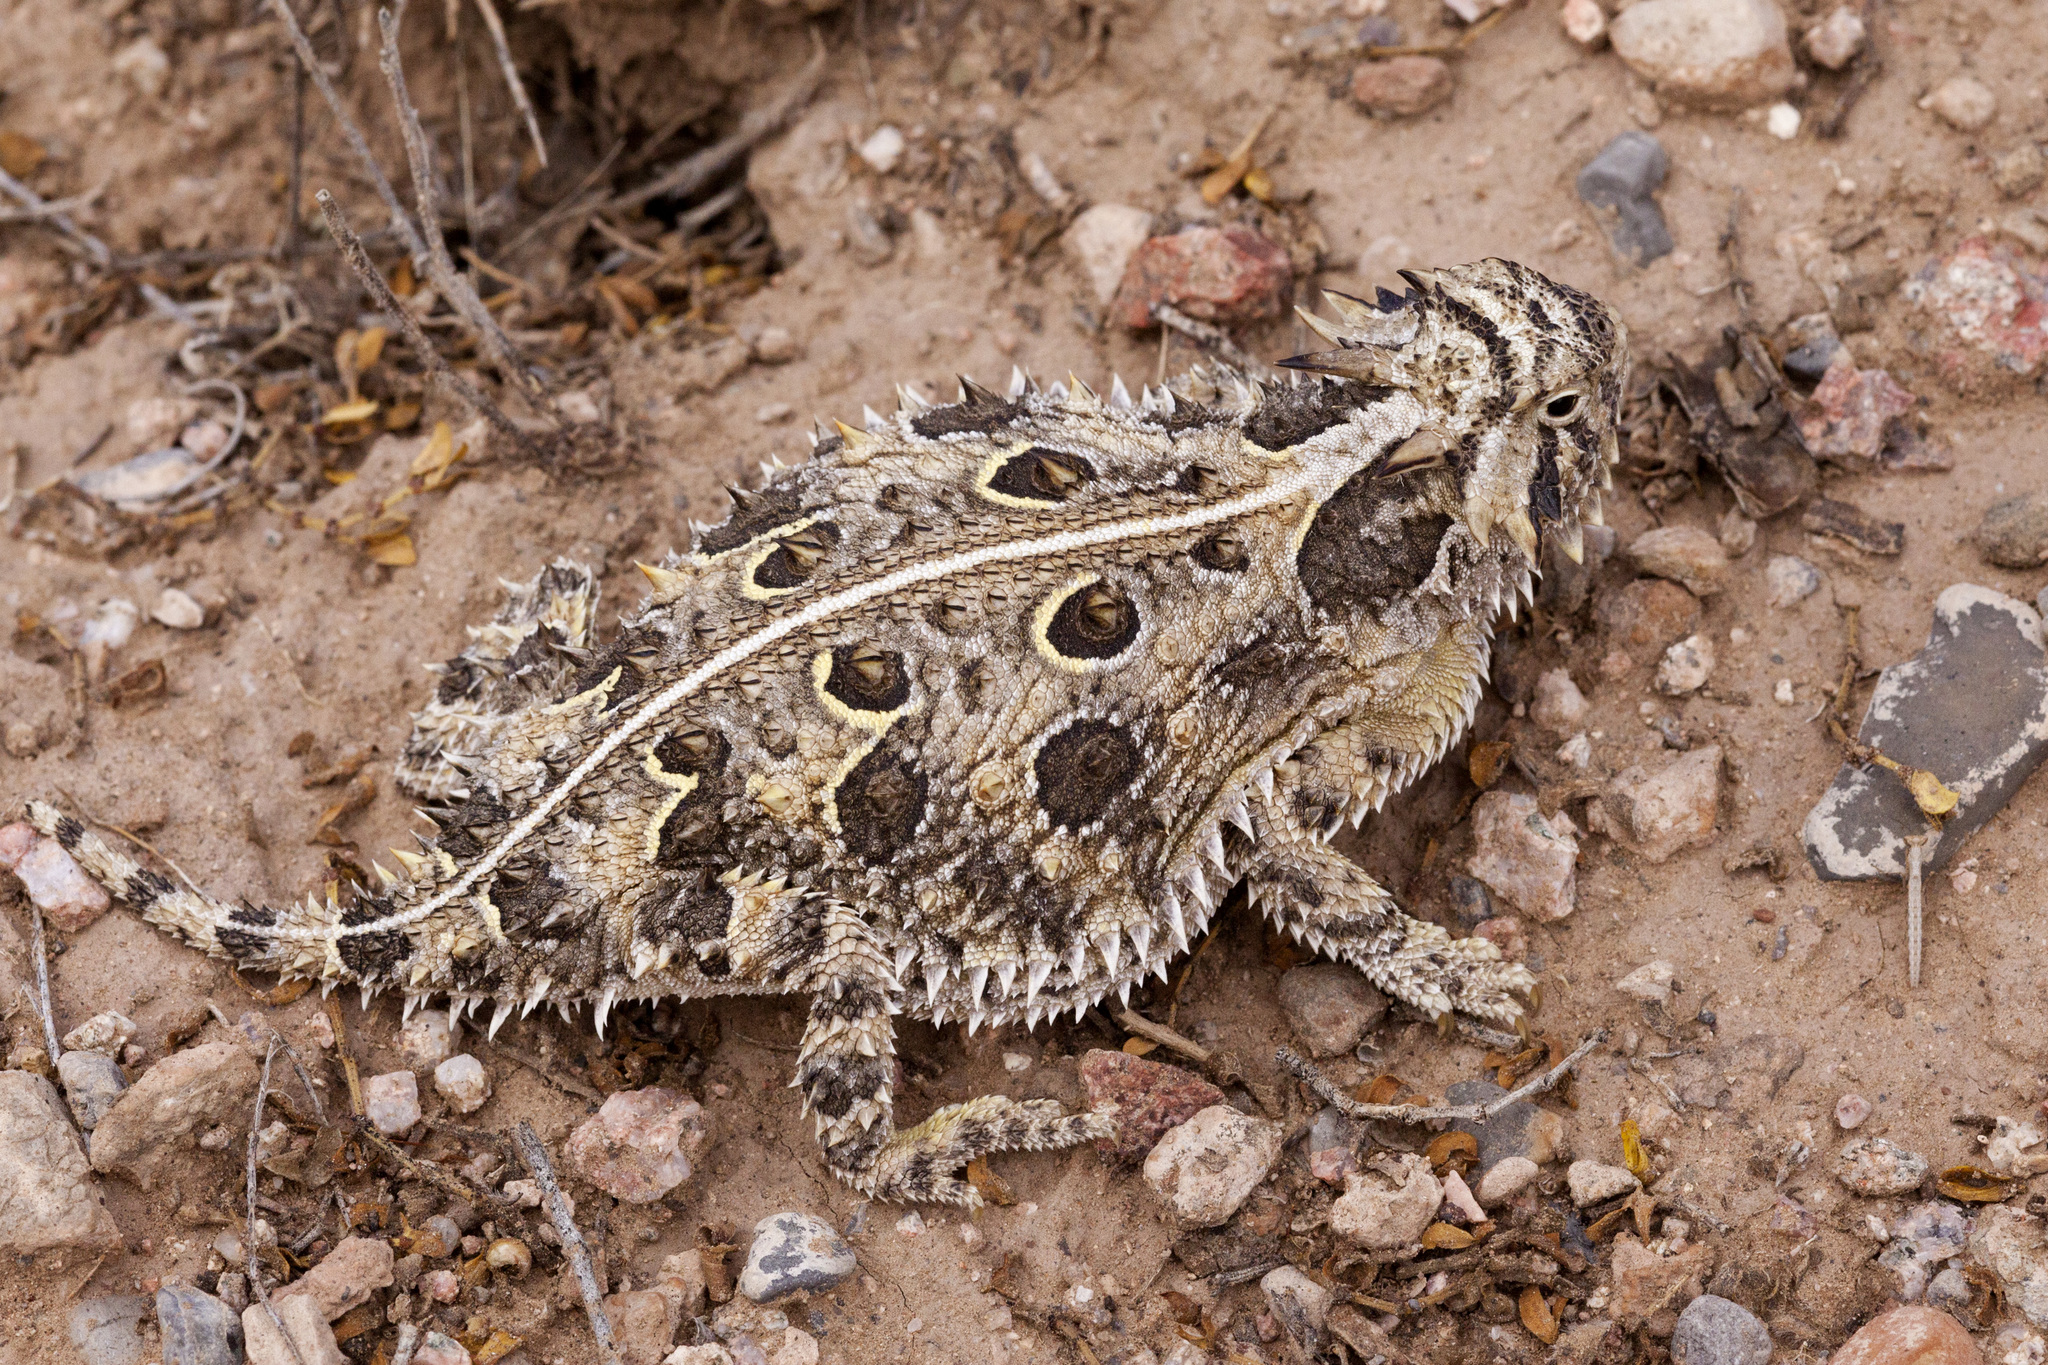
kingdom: Animalia
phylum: Chordata
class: Squamata
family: Phrynosomatidae
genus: Phrynosoma
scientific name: Phrynosoma cornutum
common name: Texas horned lizard
